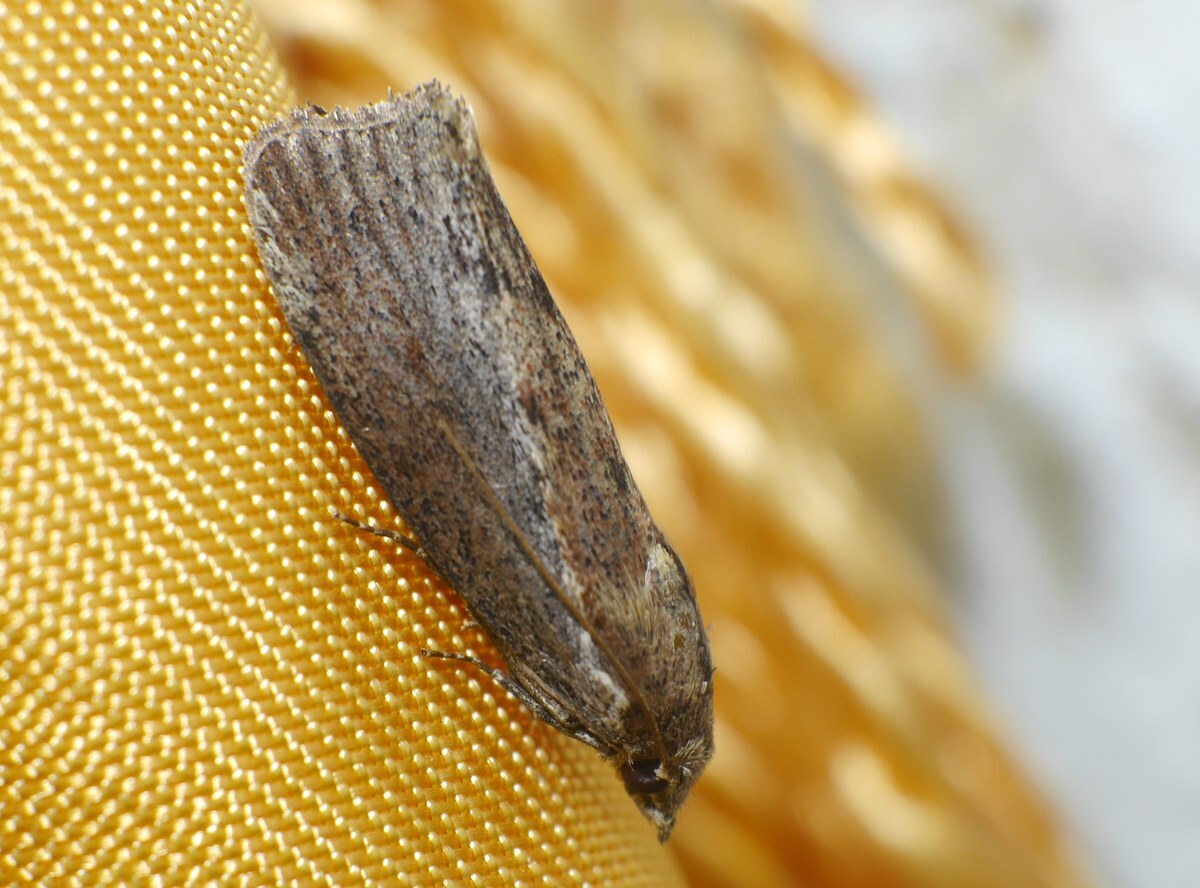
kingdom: Animalia
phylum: Arthropoda
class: Insecta
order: Lepidoptera
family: Pyralidae
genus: Galleria
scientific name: Galleria mellonella
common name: Greater wax moth
